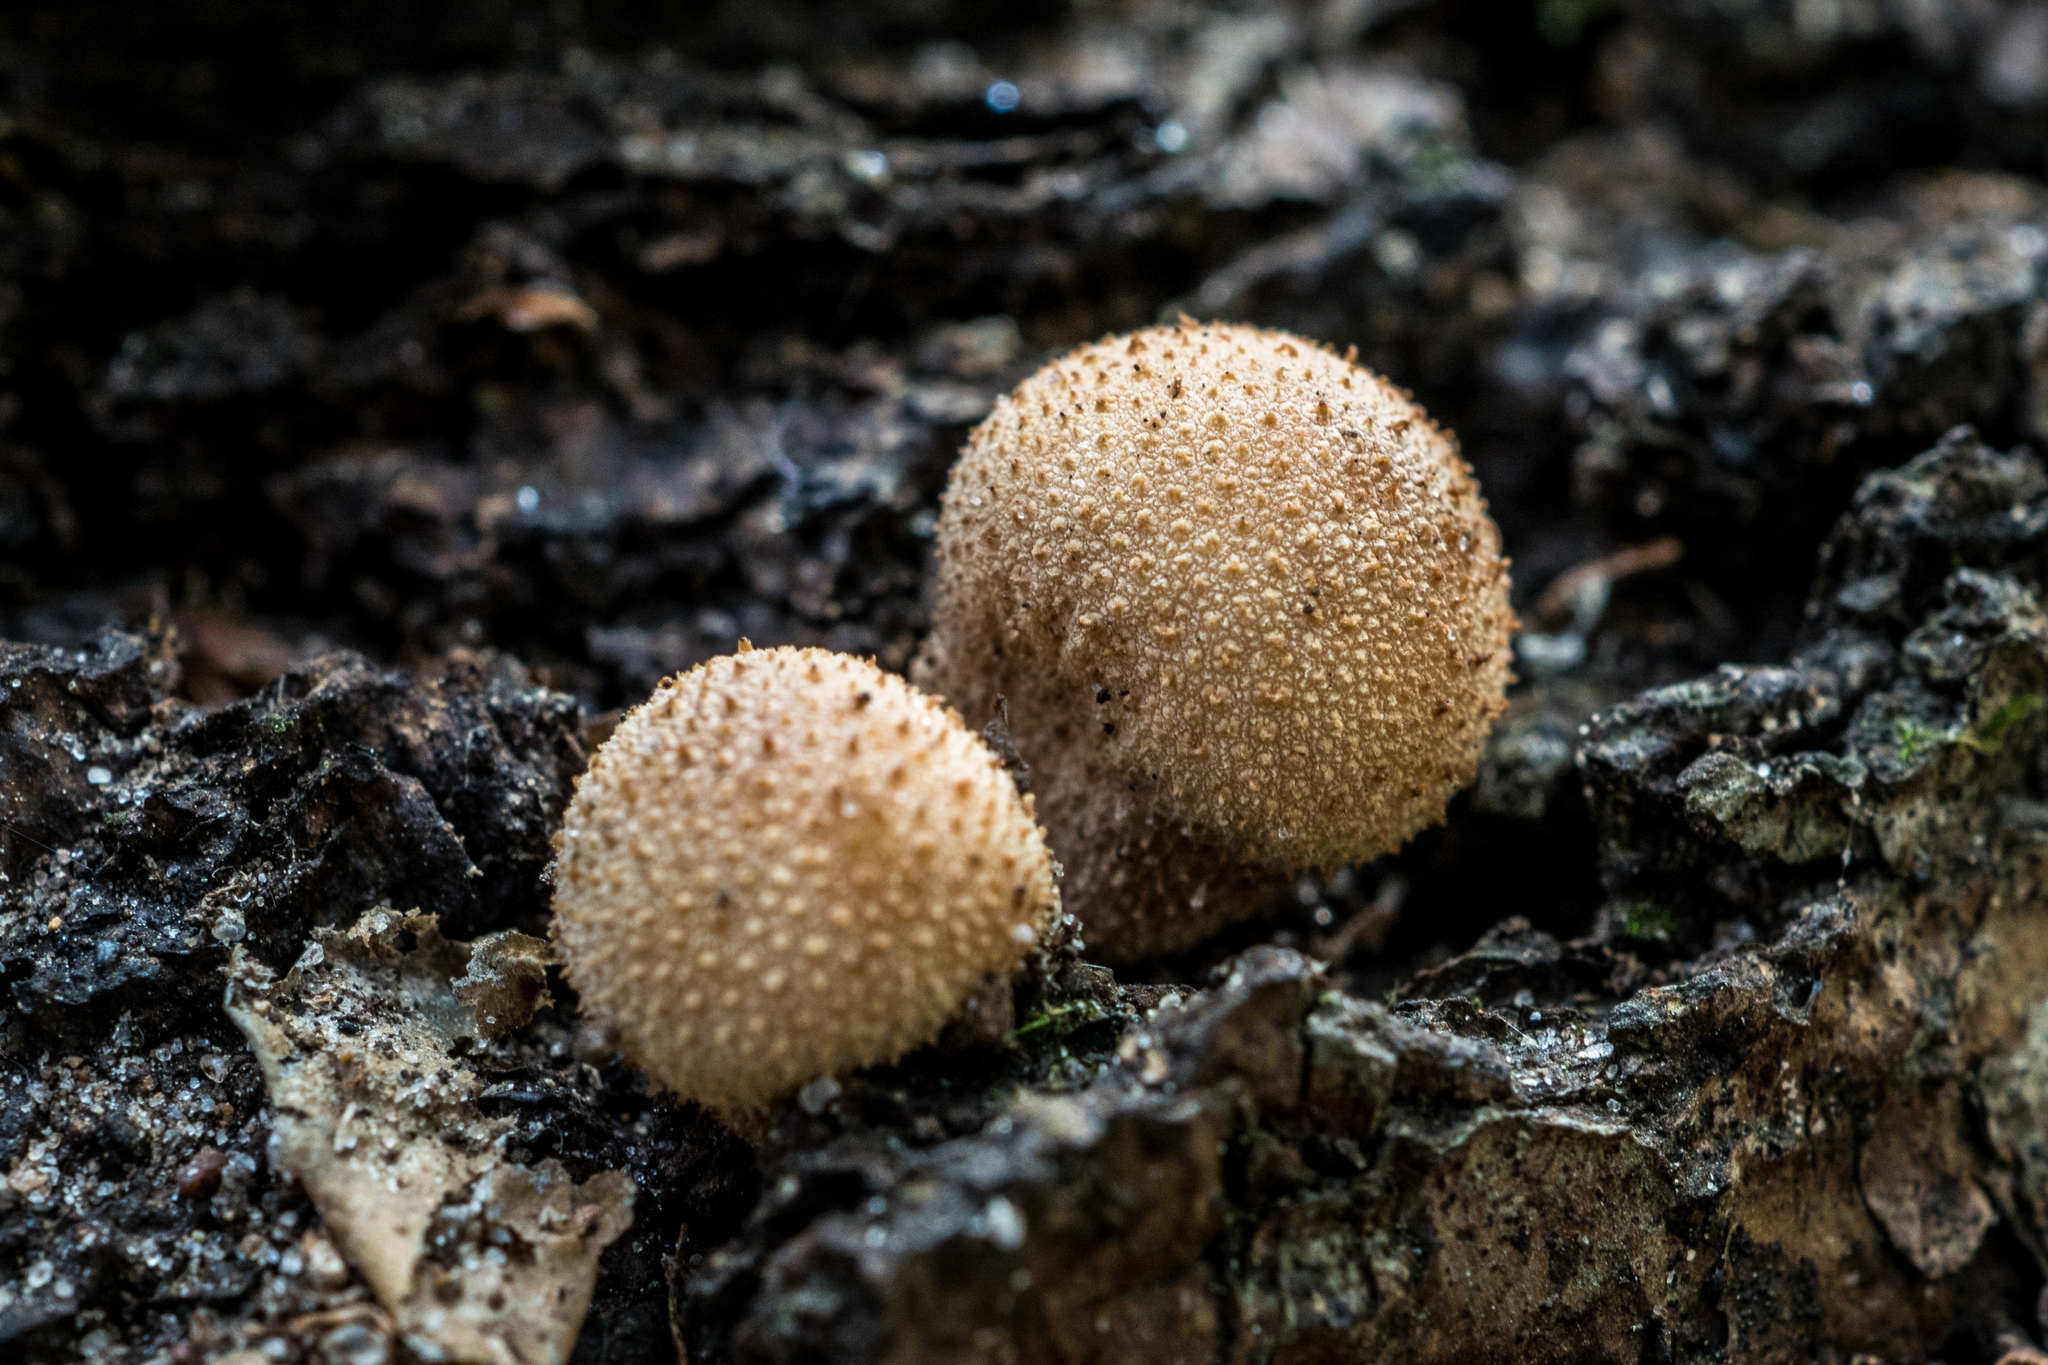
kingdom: Fungi
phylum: Basidiomycota
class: Agaricomycetes
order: Agaricales
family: Lycoperdaceae
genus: Lycoperdon
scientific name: Lycoperdon perlatum
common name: Common puffball
